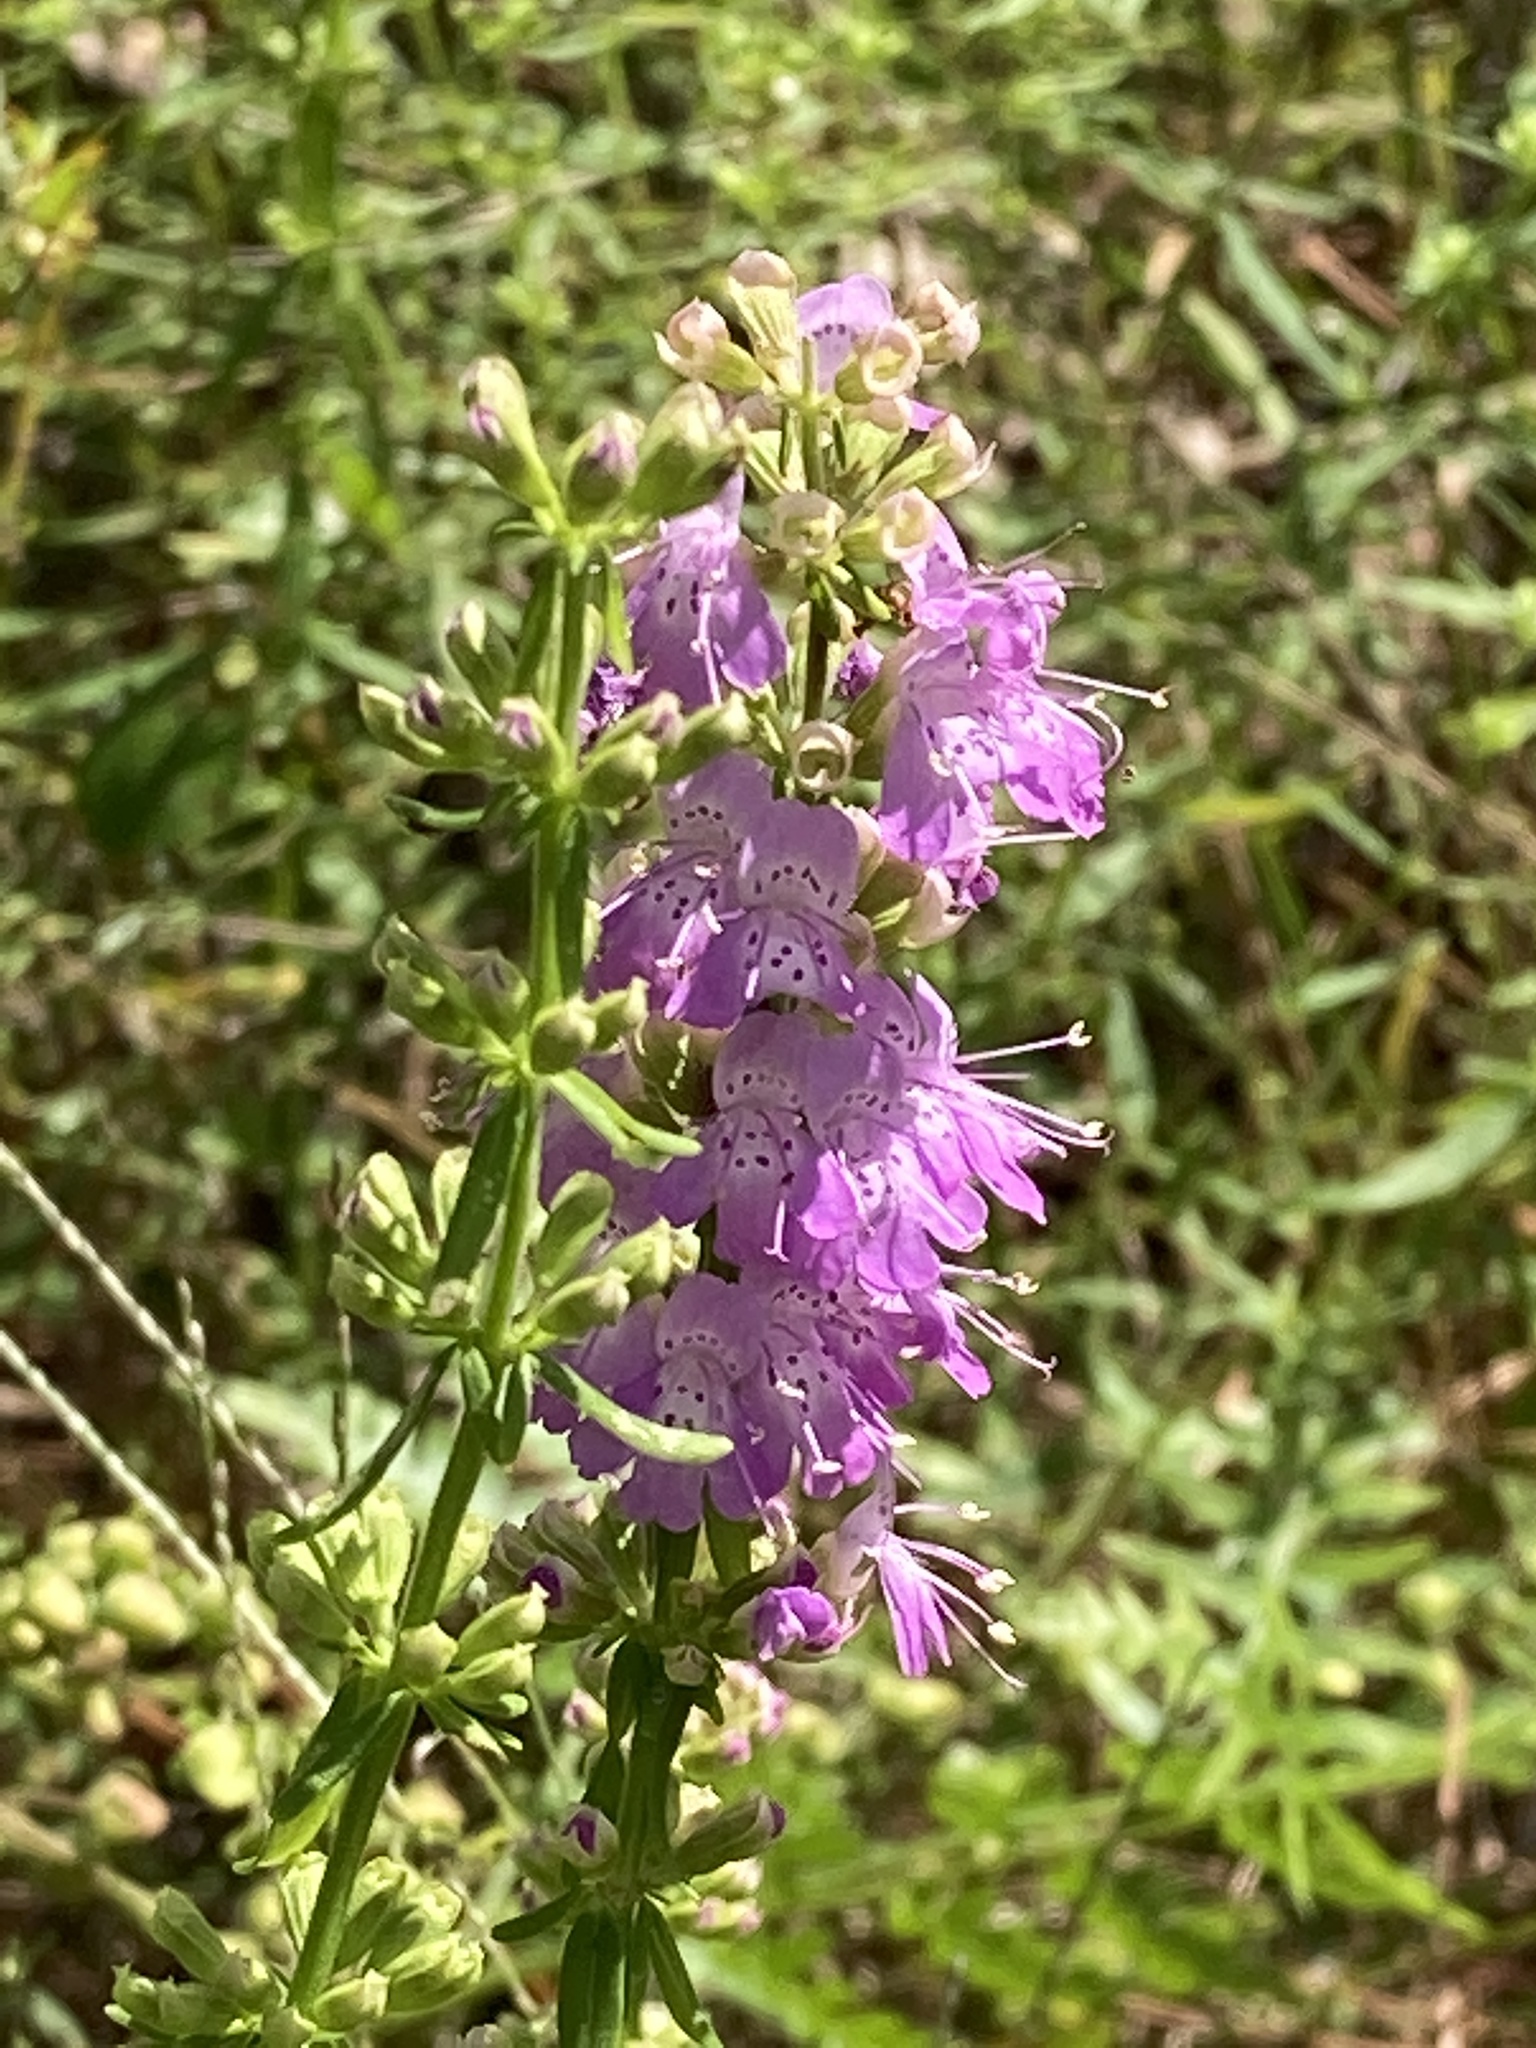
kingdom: Plantae
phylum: Tracheophyta
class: Magnoliopsida
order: Lamiales
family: Lamiaceae
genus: Dicerandra
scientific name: Dicerandra densiflora
